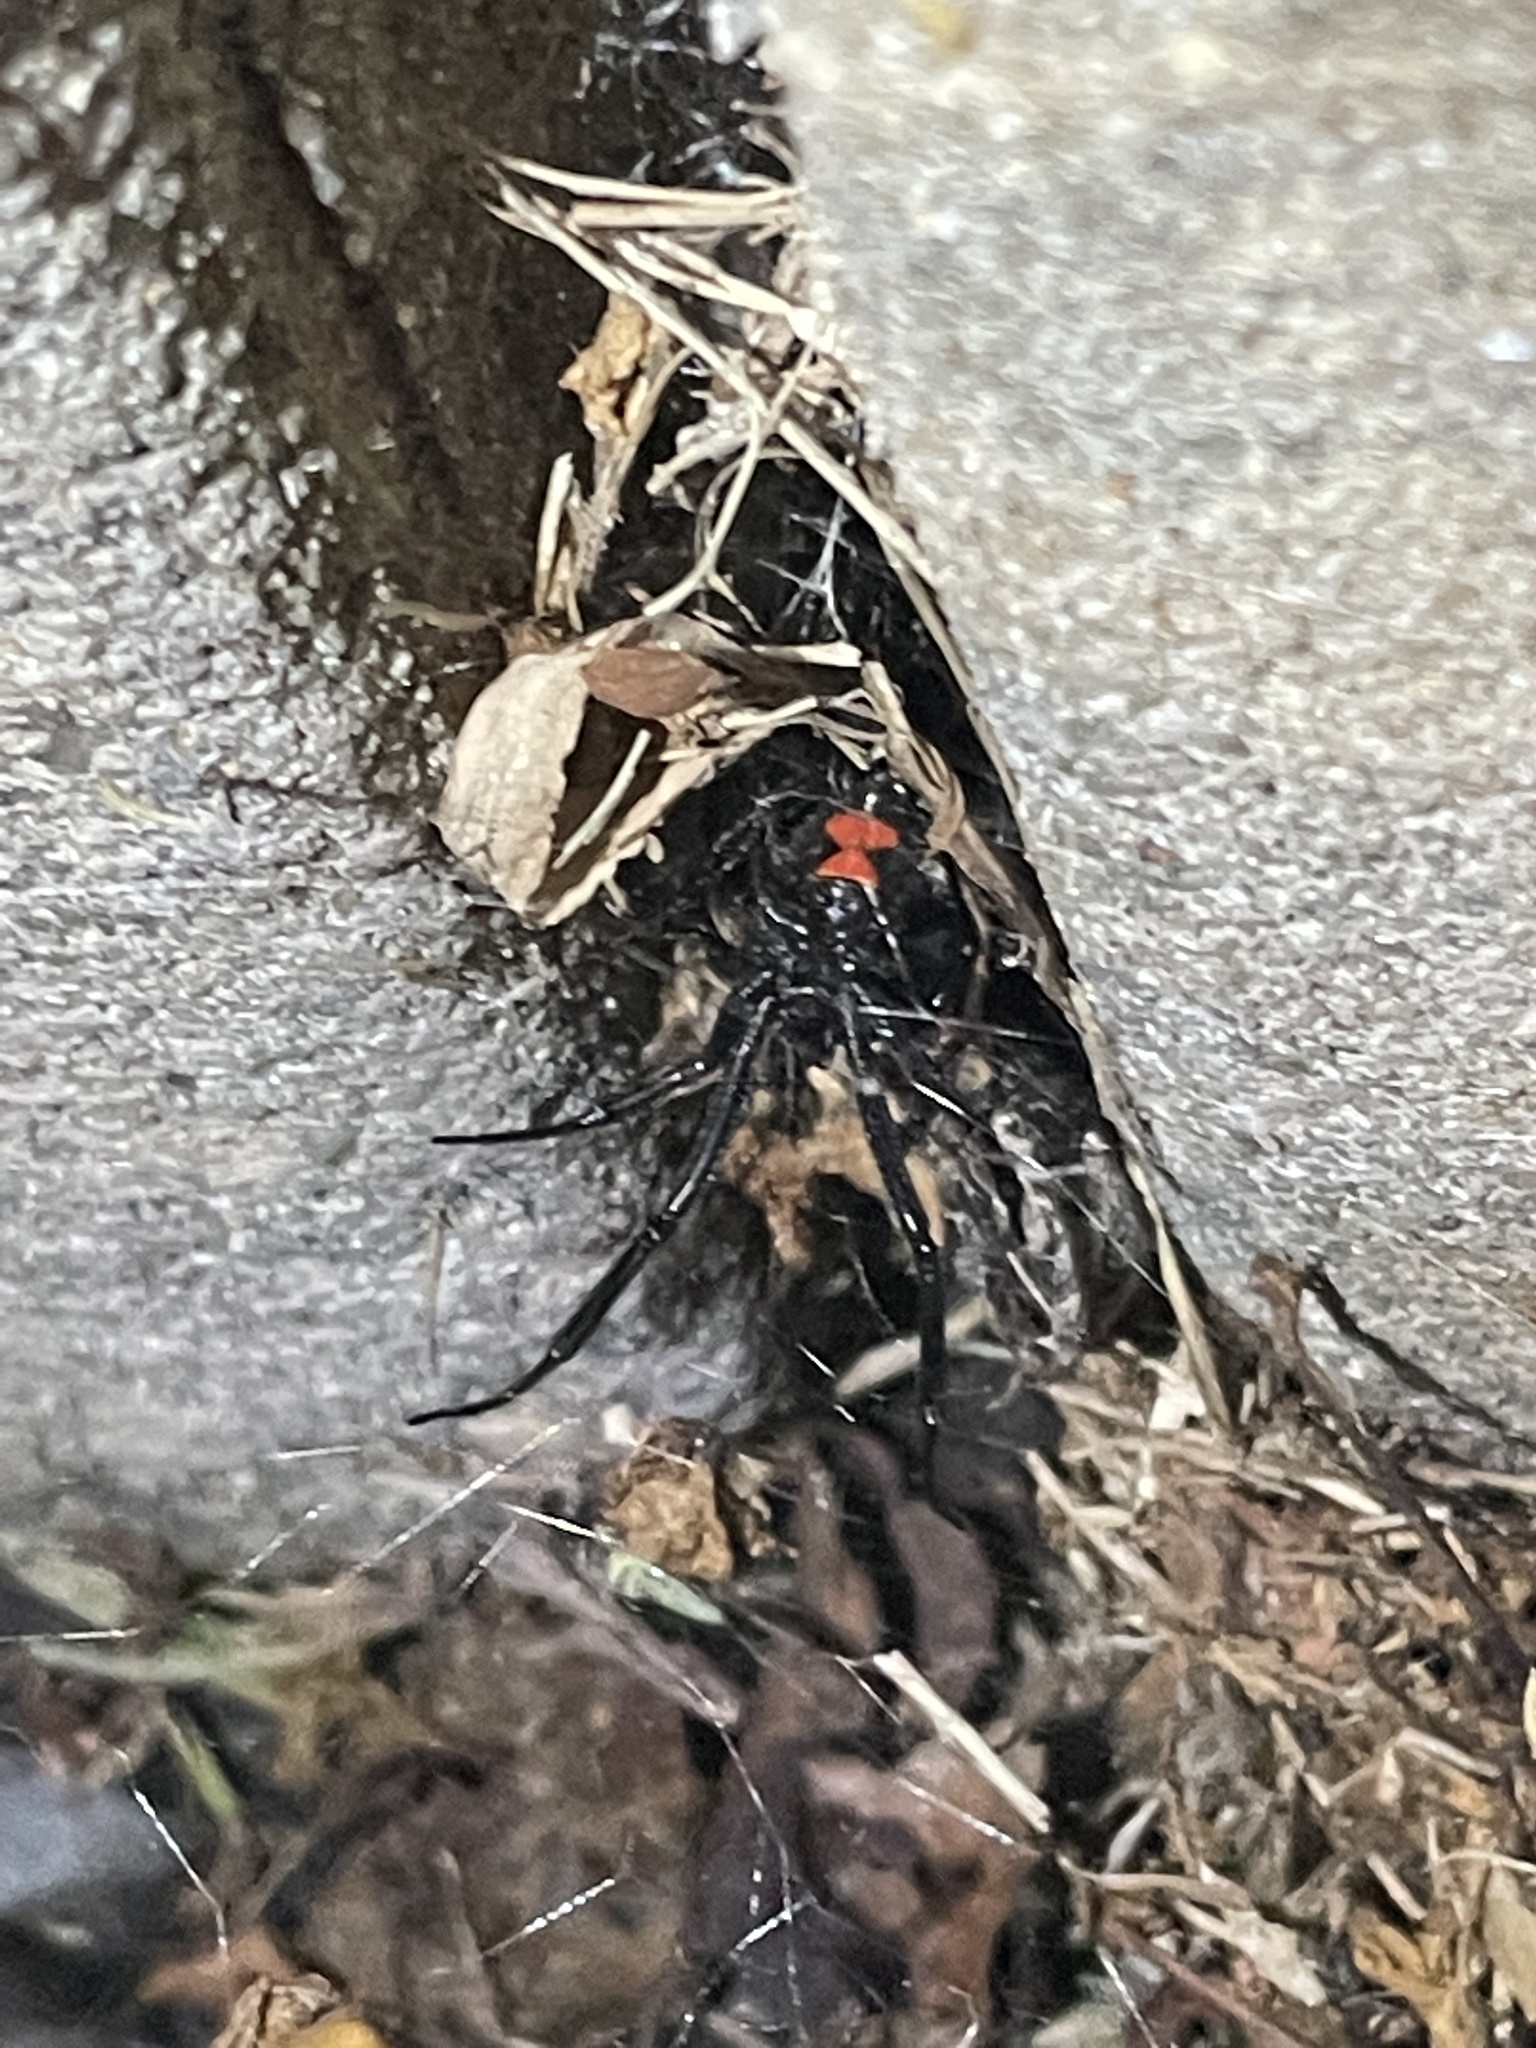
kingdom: Animalia
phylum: Arthropoda
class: Arachnida
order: Araneae
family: Theridiidae
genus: Latrodectus
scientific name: Latrodectus mactans
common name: Cobweb spiders
